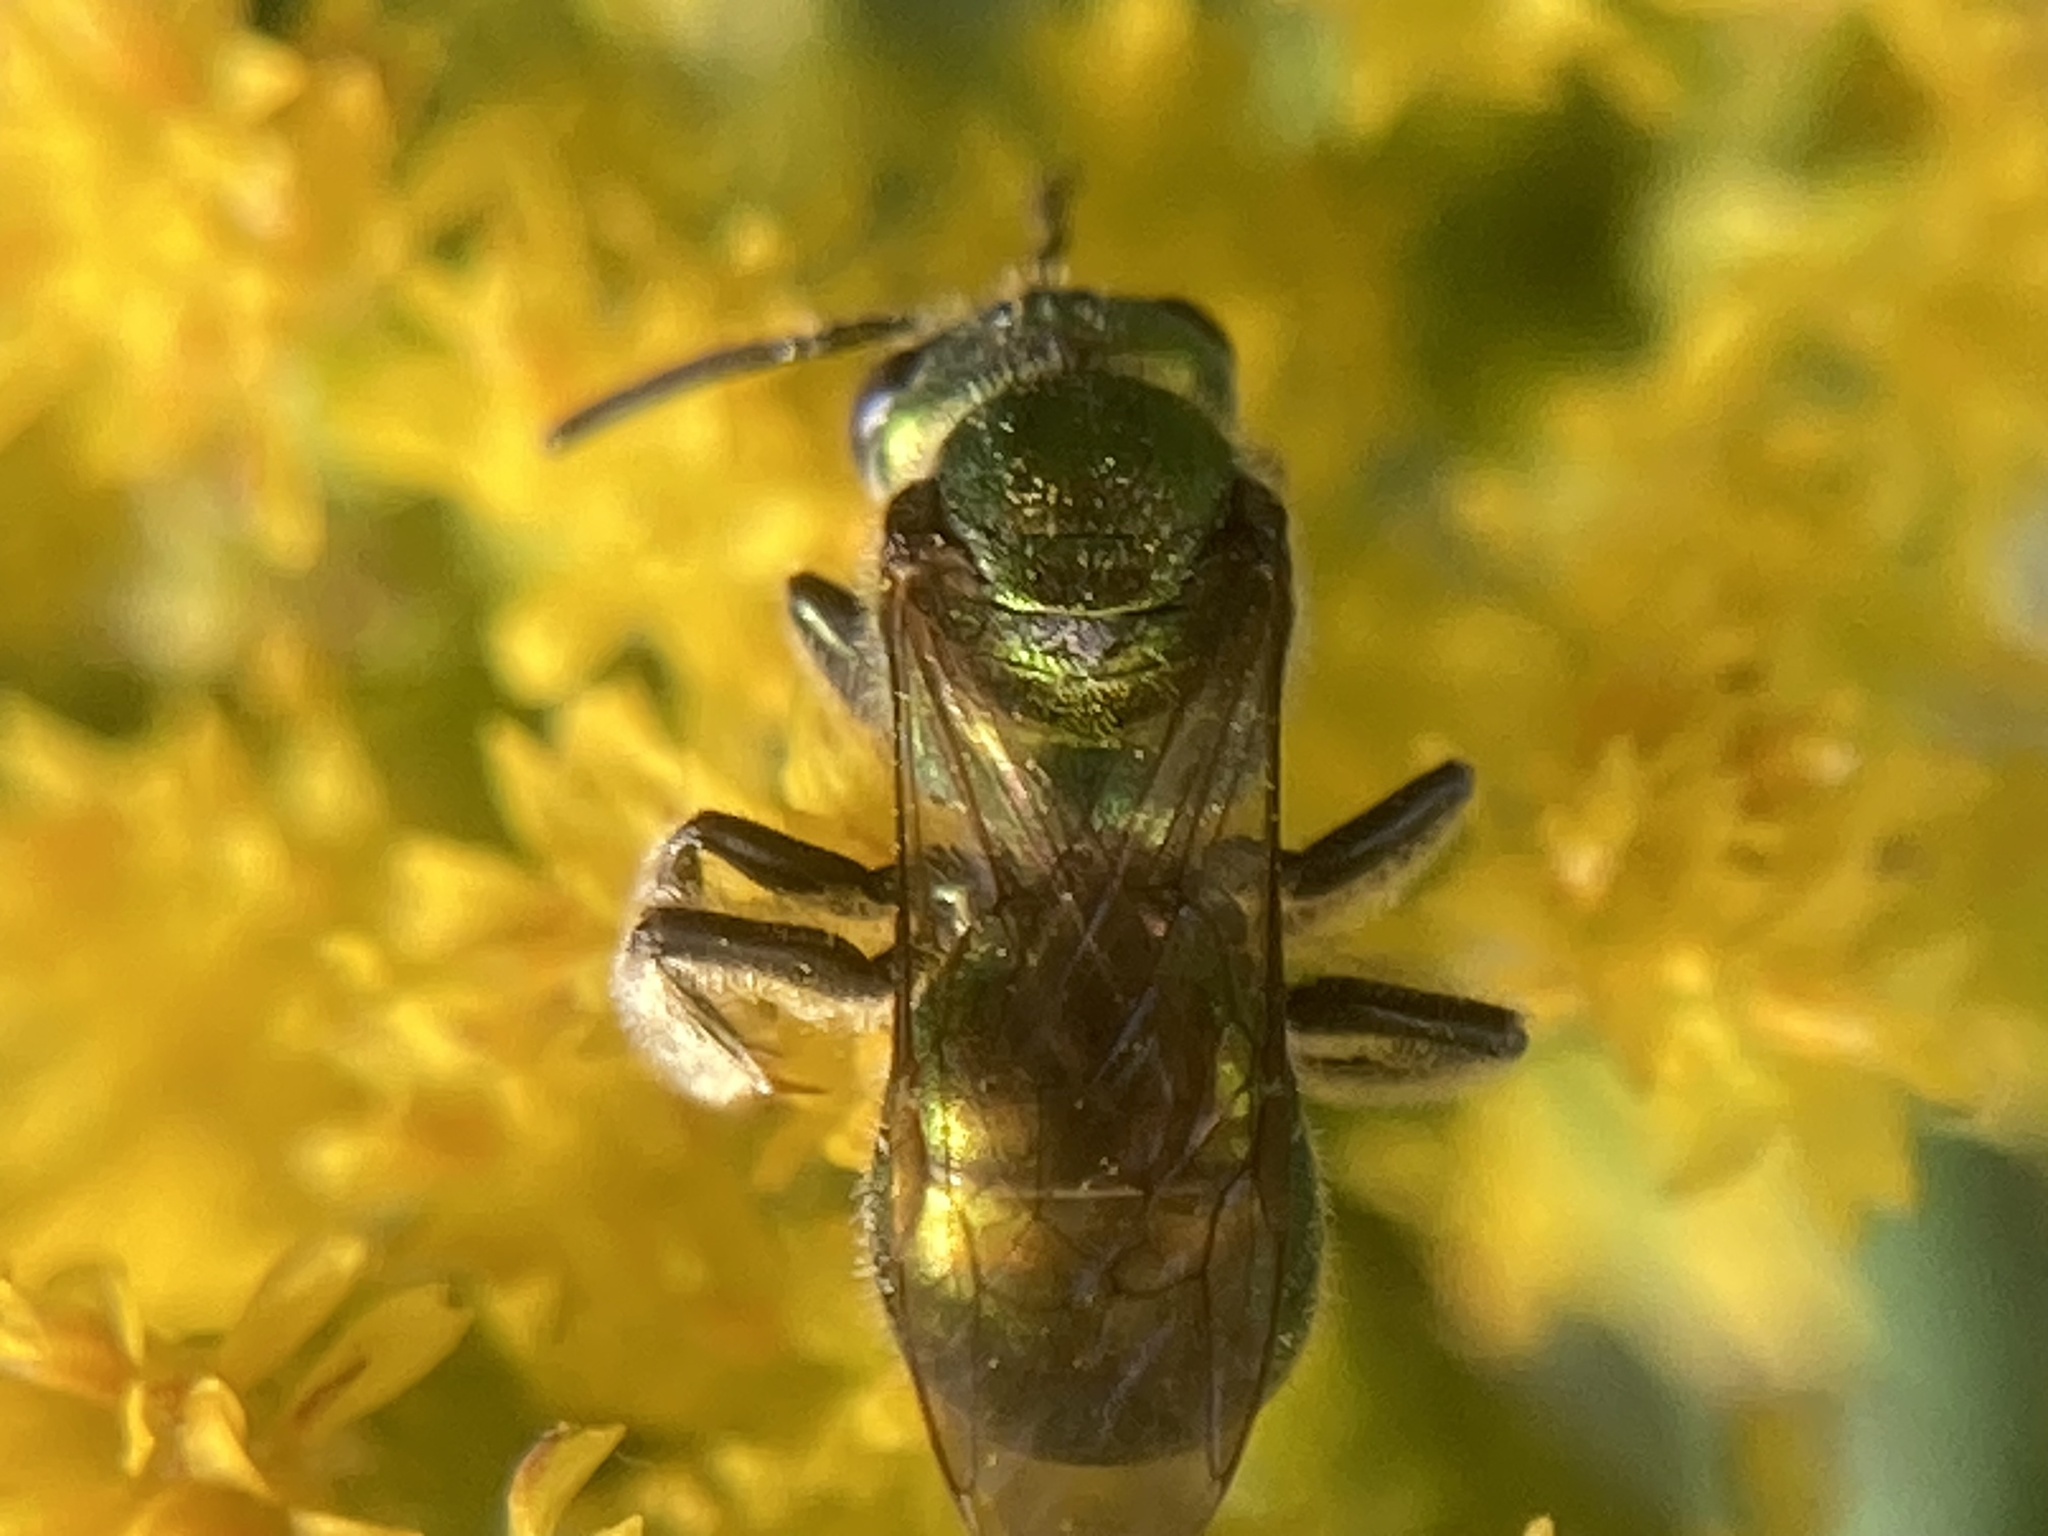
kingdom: Animalia
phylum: Arthropoda
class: Insecta
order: Hymenoptera
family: Halictidae
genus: Augochlora
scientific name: Augochlora pura
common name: Pure green sweat bee
